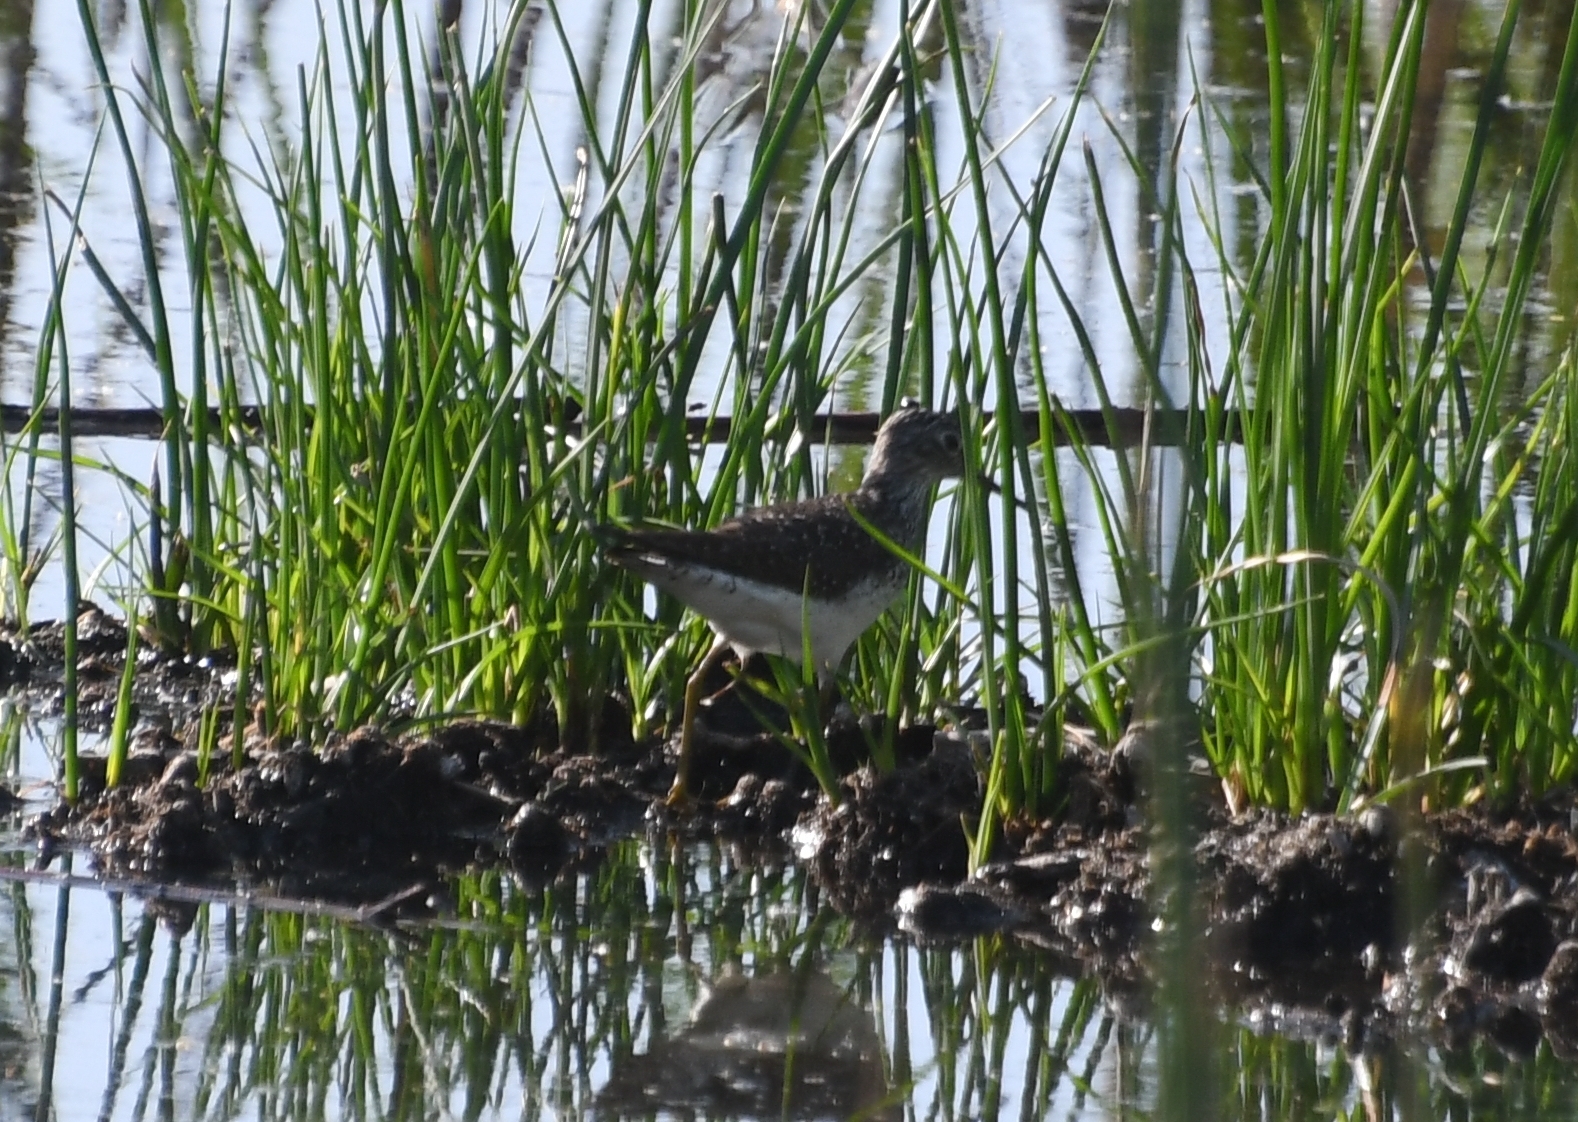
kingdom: Animalia
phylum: Chordata
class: Aves
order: Charadriiformes
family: Scolopacidae
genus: Tringa
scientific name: Tringa solitaria
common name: Solitary sandpiper
